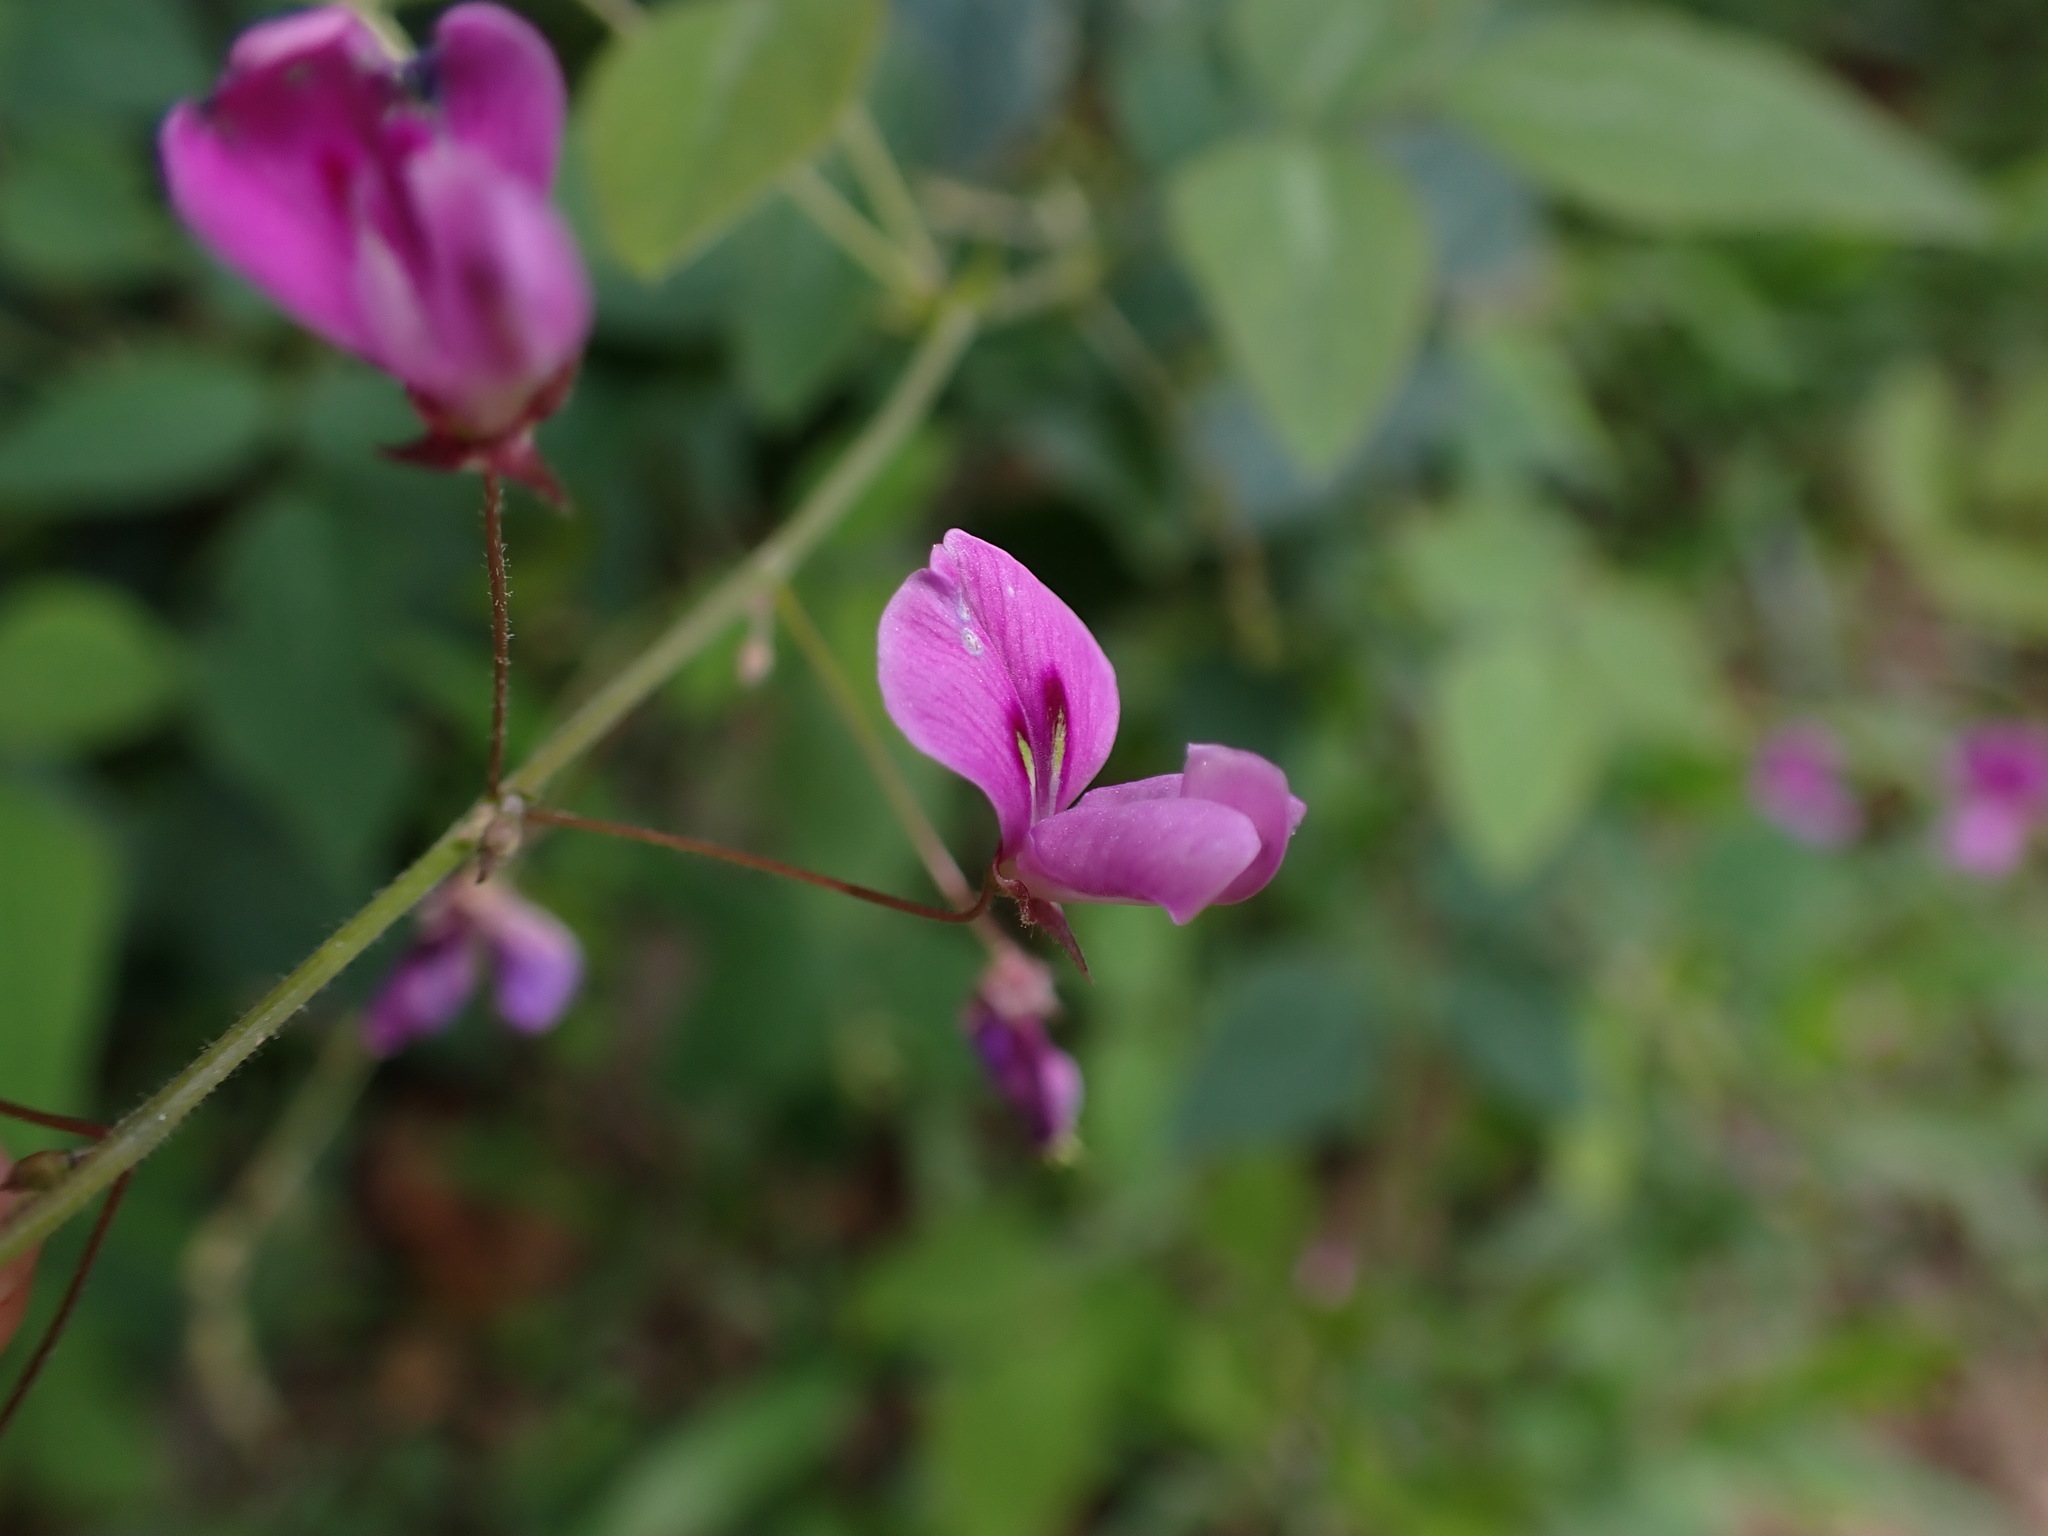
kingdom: Plantae
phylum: Tracheophyta
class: Magnoliopsida
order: Fabales
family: Fabaceae
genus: Desmodium
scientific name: Desmodium uncinatum
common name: Silverleaf desmodium
